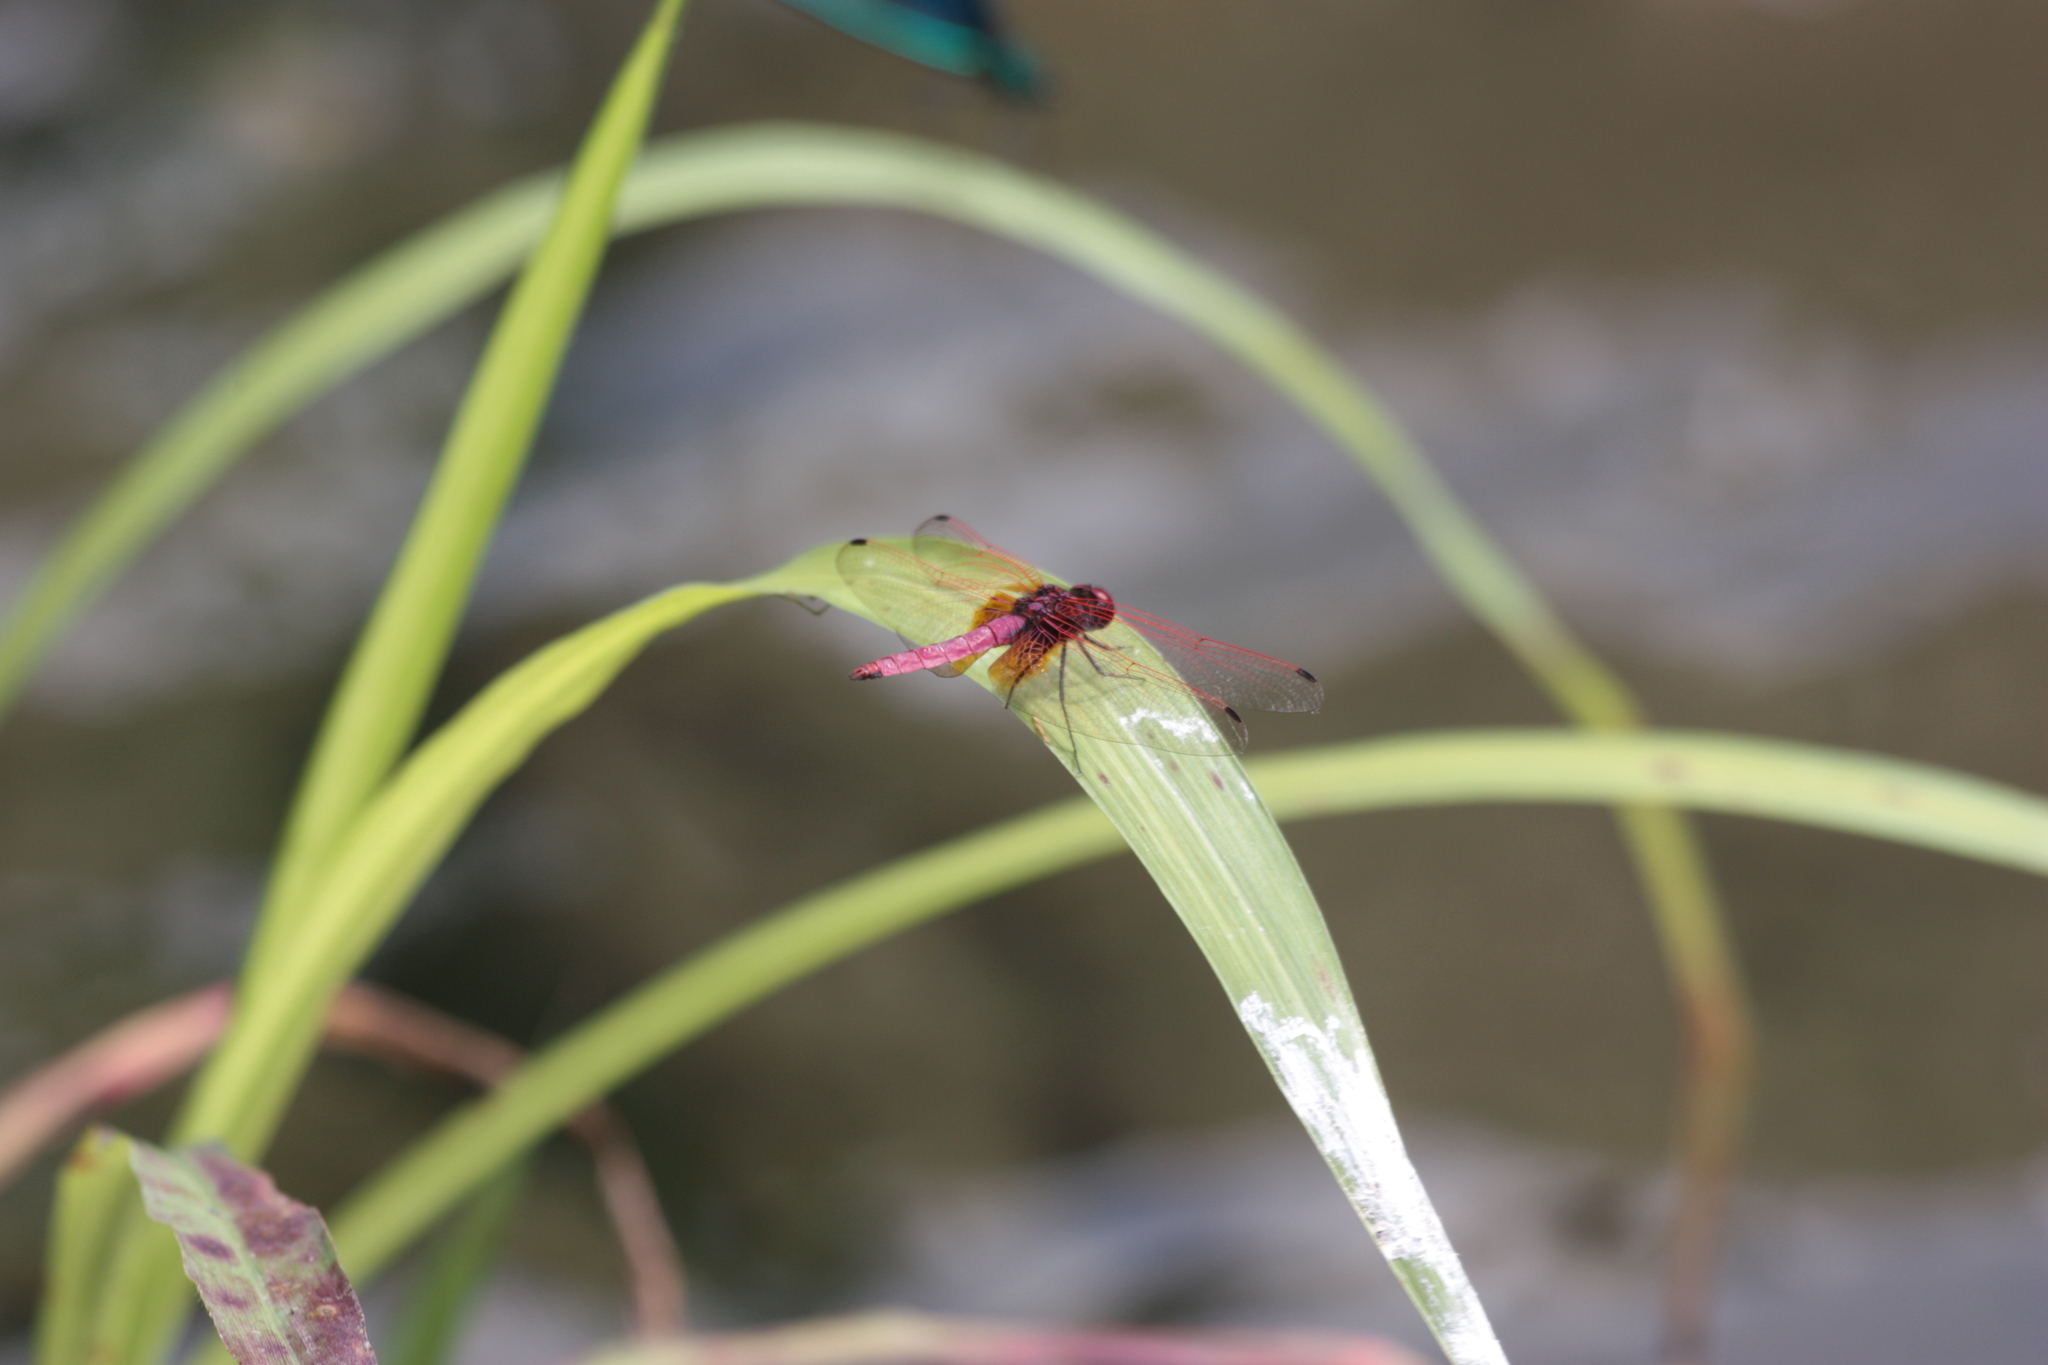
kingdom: Animalia
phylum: Arthropoda
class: Insecta
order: Odonata
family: Libellulidae
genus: Trithemis
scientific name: Trithemis aurora
